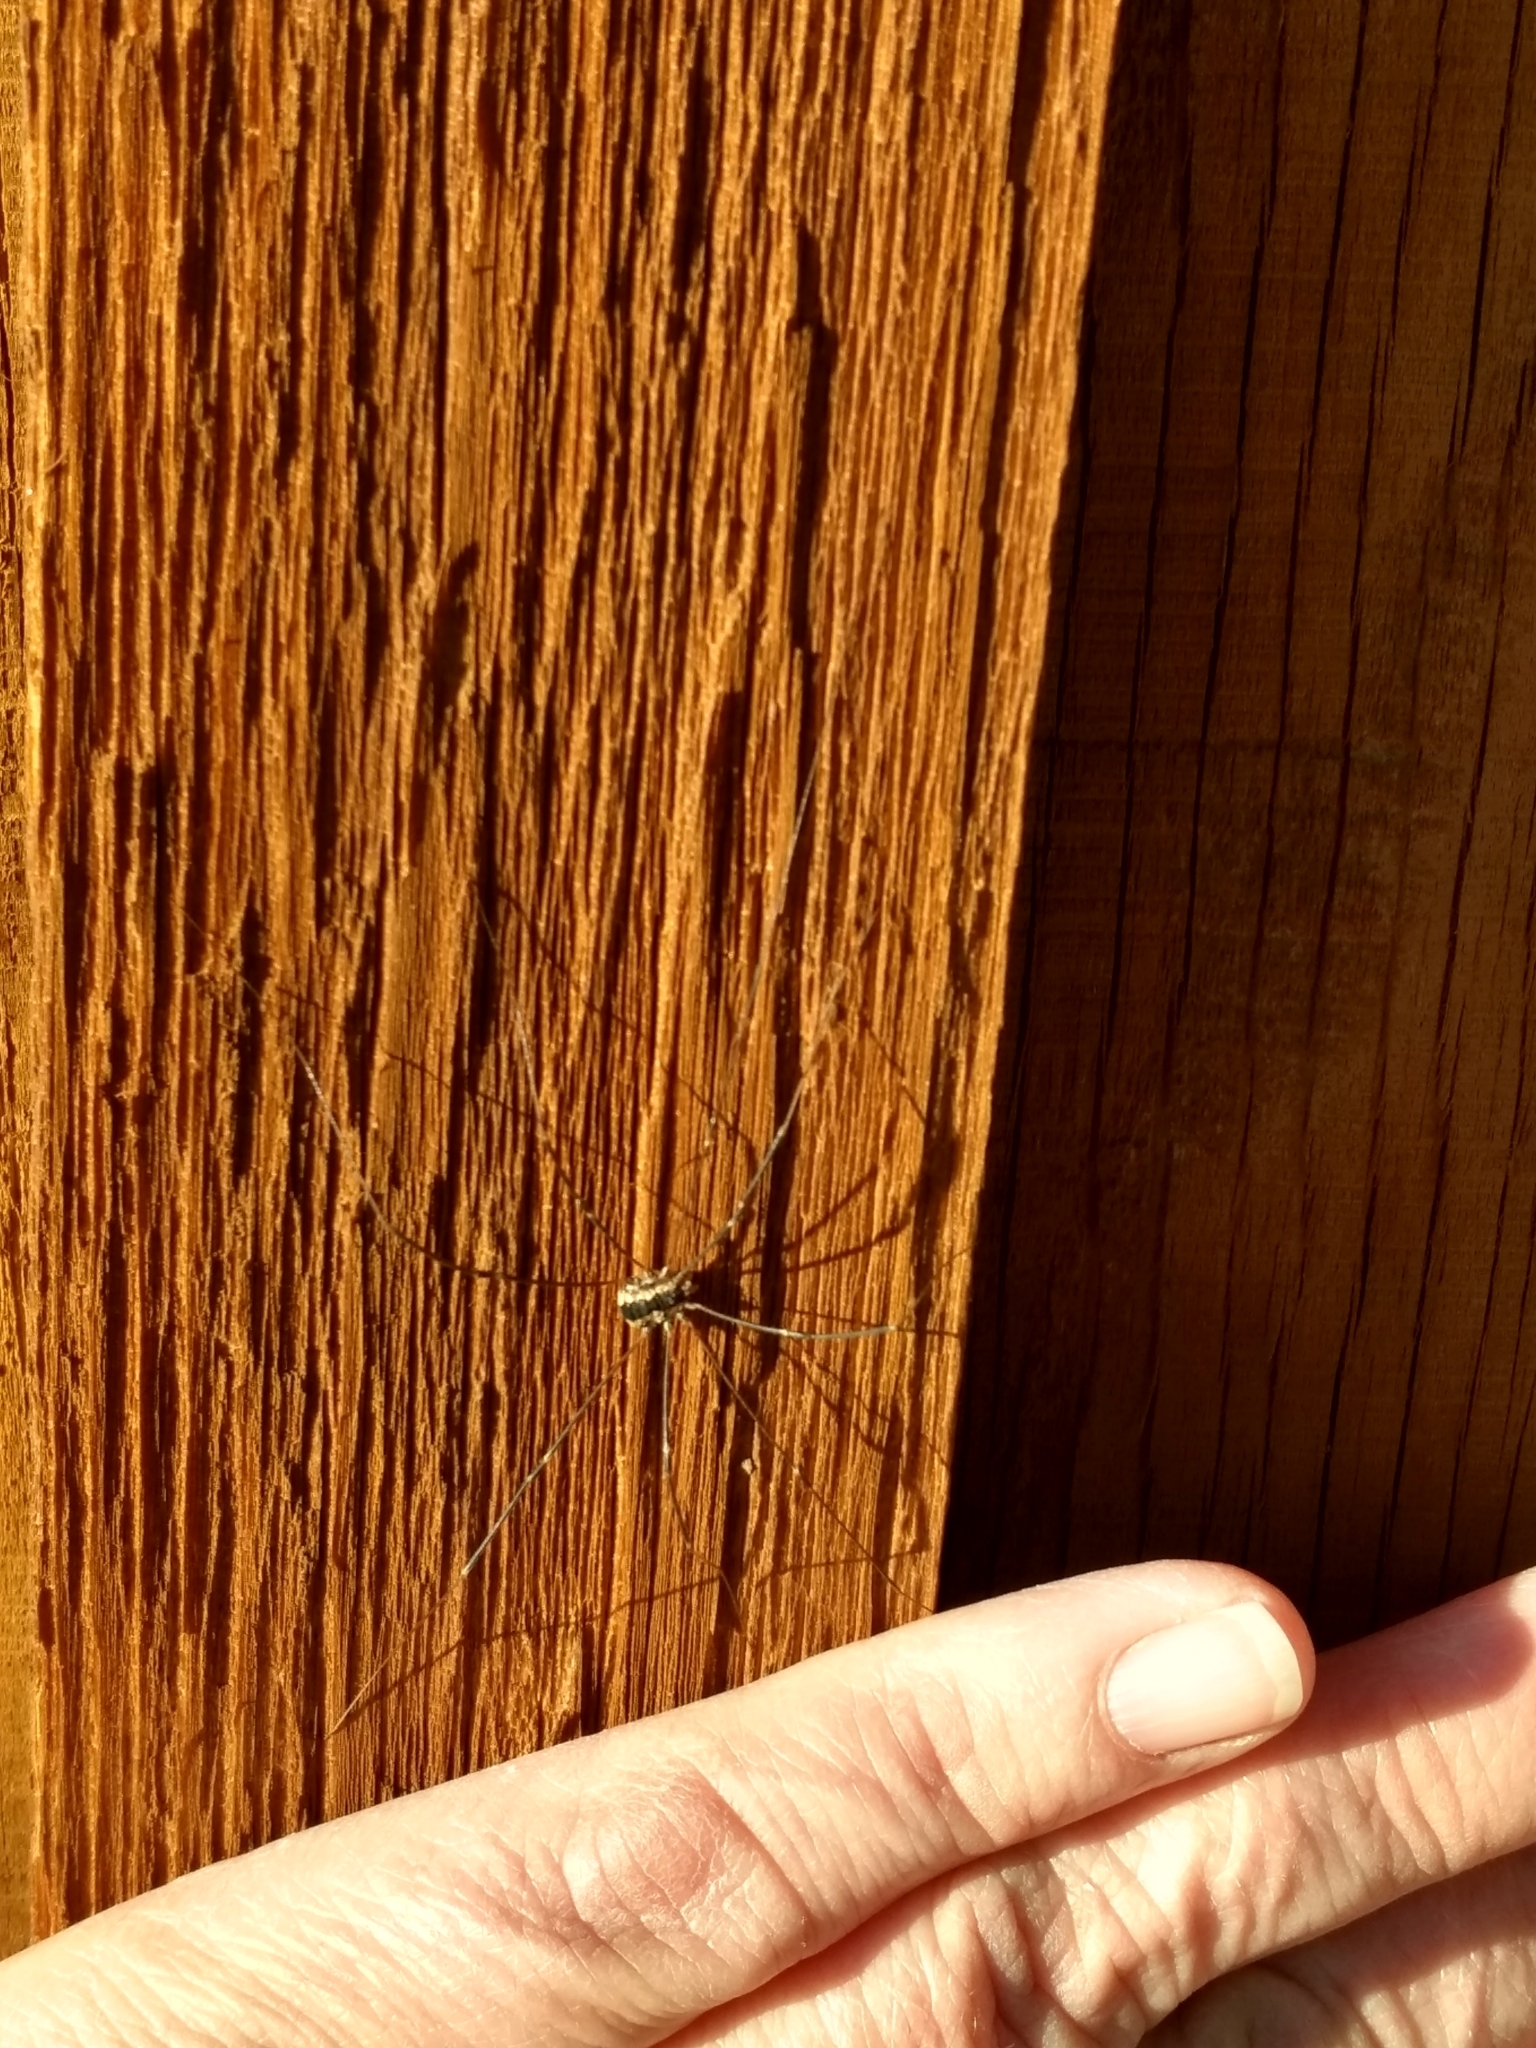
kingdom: Animalia
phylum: Arthropoda
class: Arachnida
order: Opiliones
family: Sclerosomatidae
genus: Leuronychus
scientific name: Leuronychus pacificus
